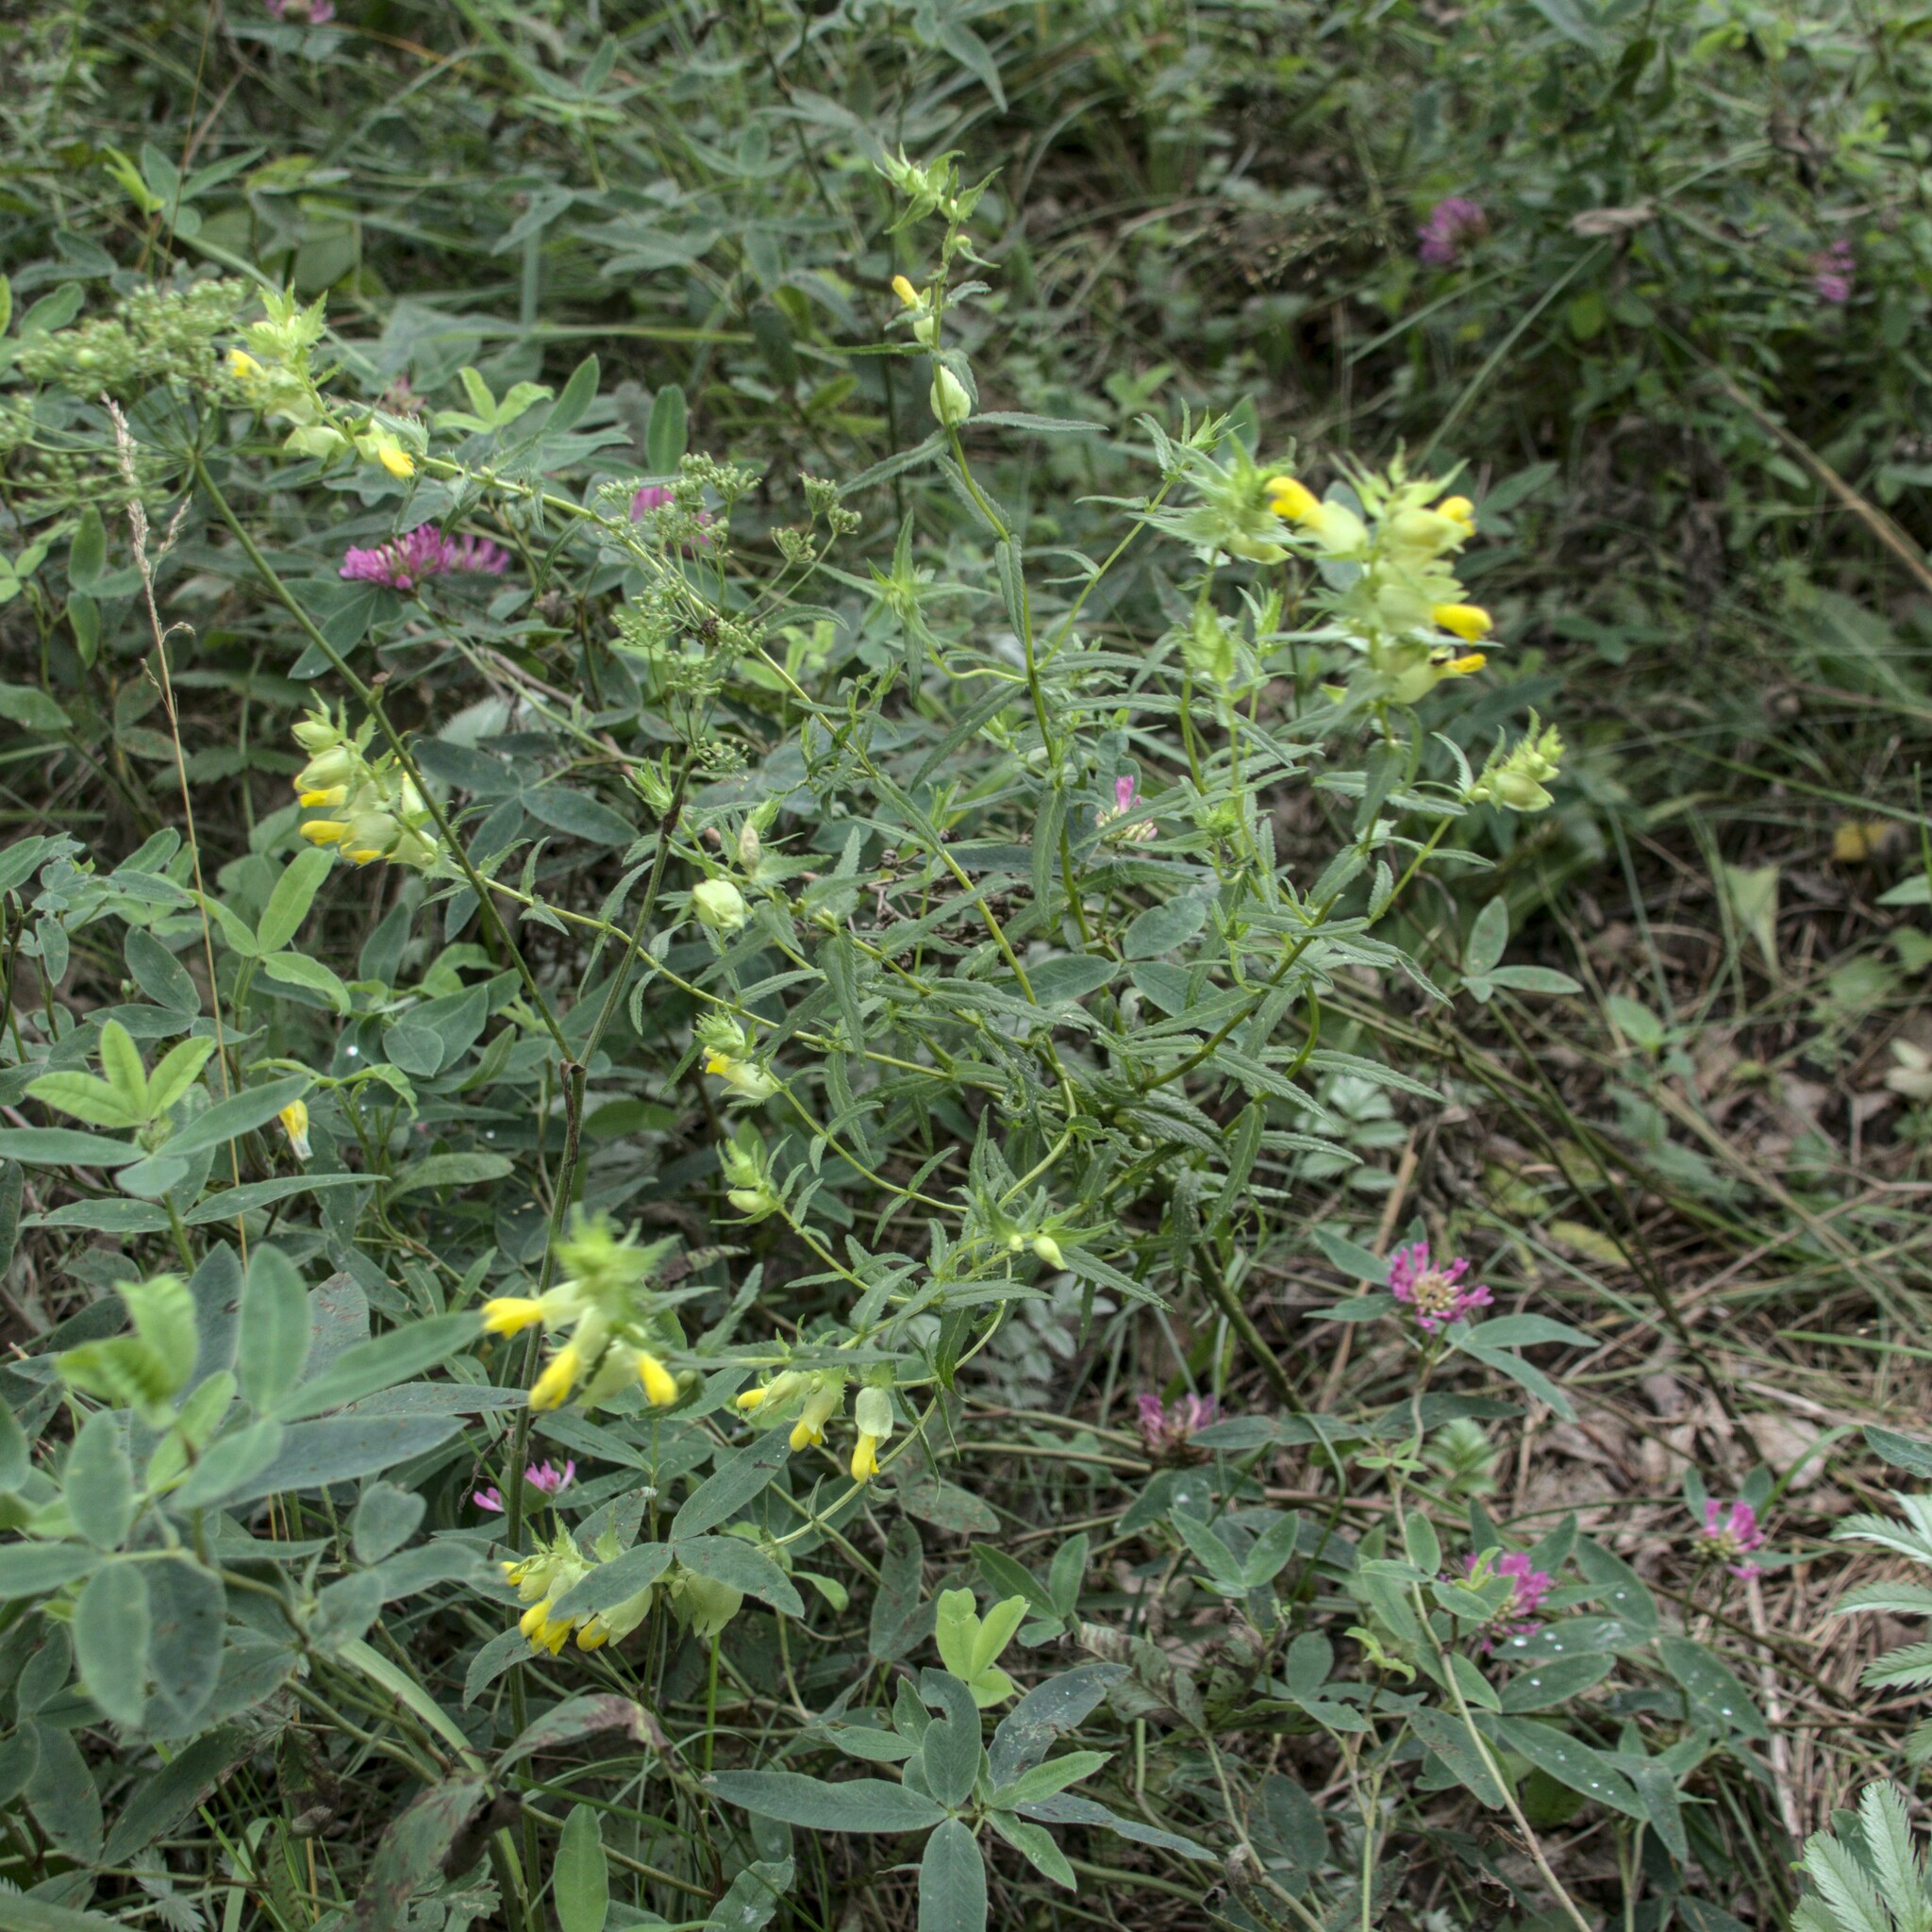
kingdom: Plantae
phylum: Tracheophyta
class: Magnoliopsida
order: Lamiales
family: Orobanchaceae
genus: Rhinanthus
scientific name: Rhinanthus serotinus
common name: Late-flowering yellow rattle
